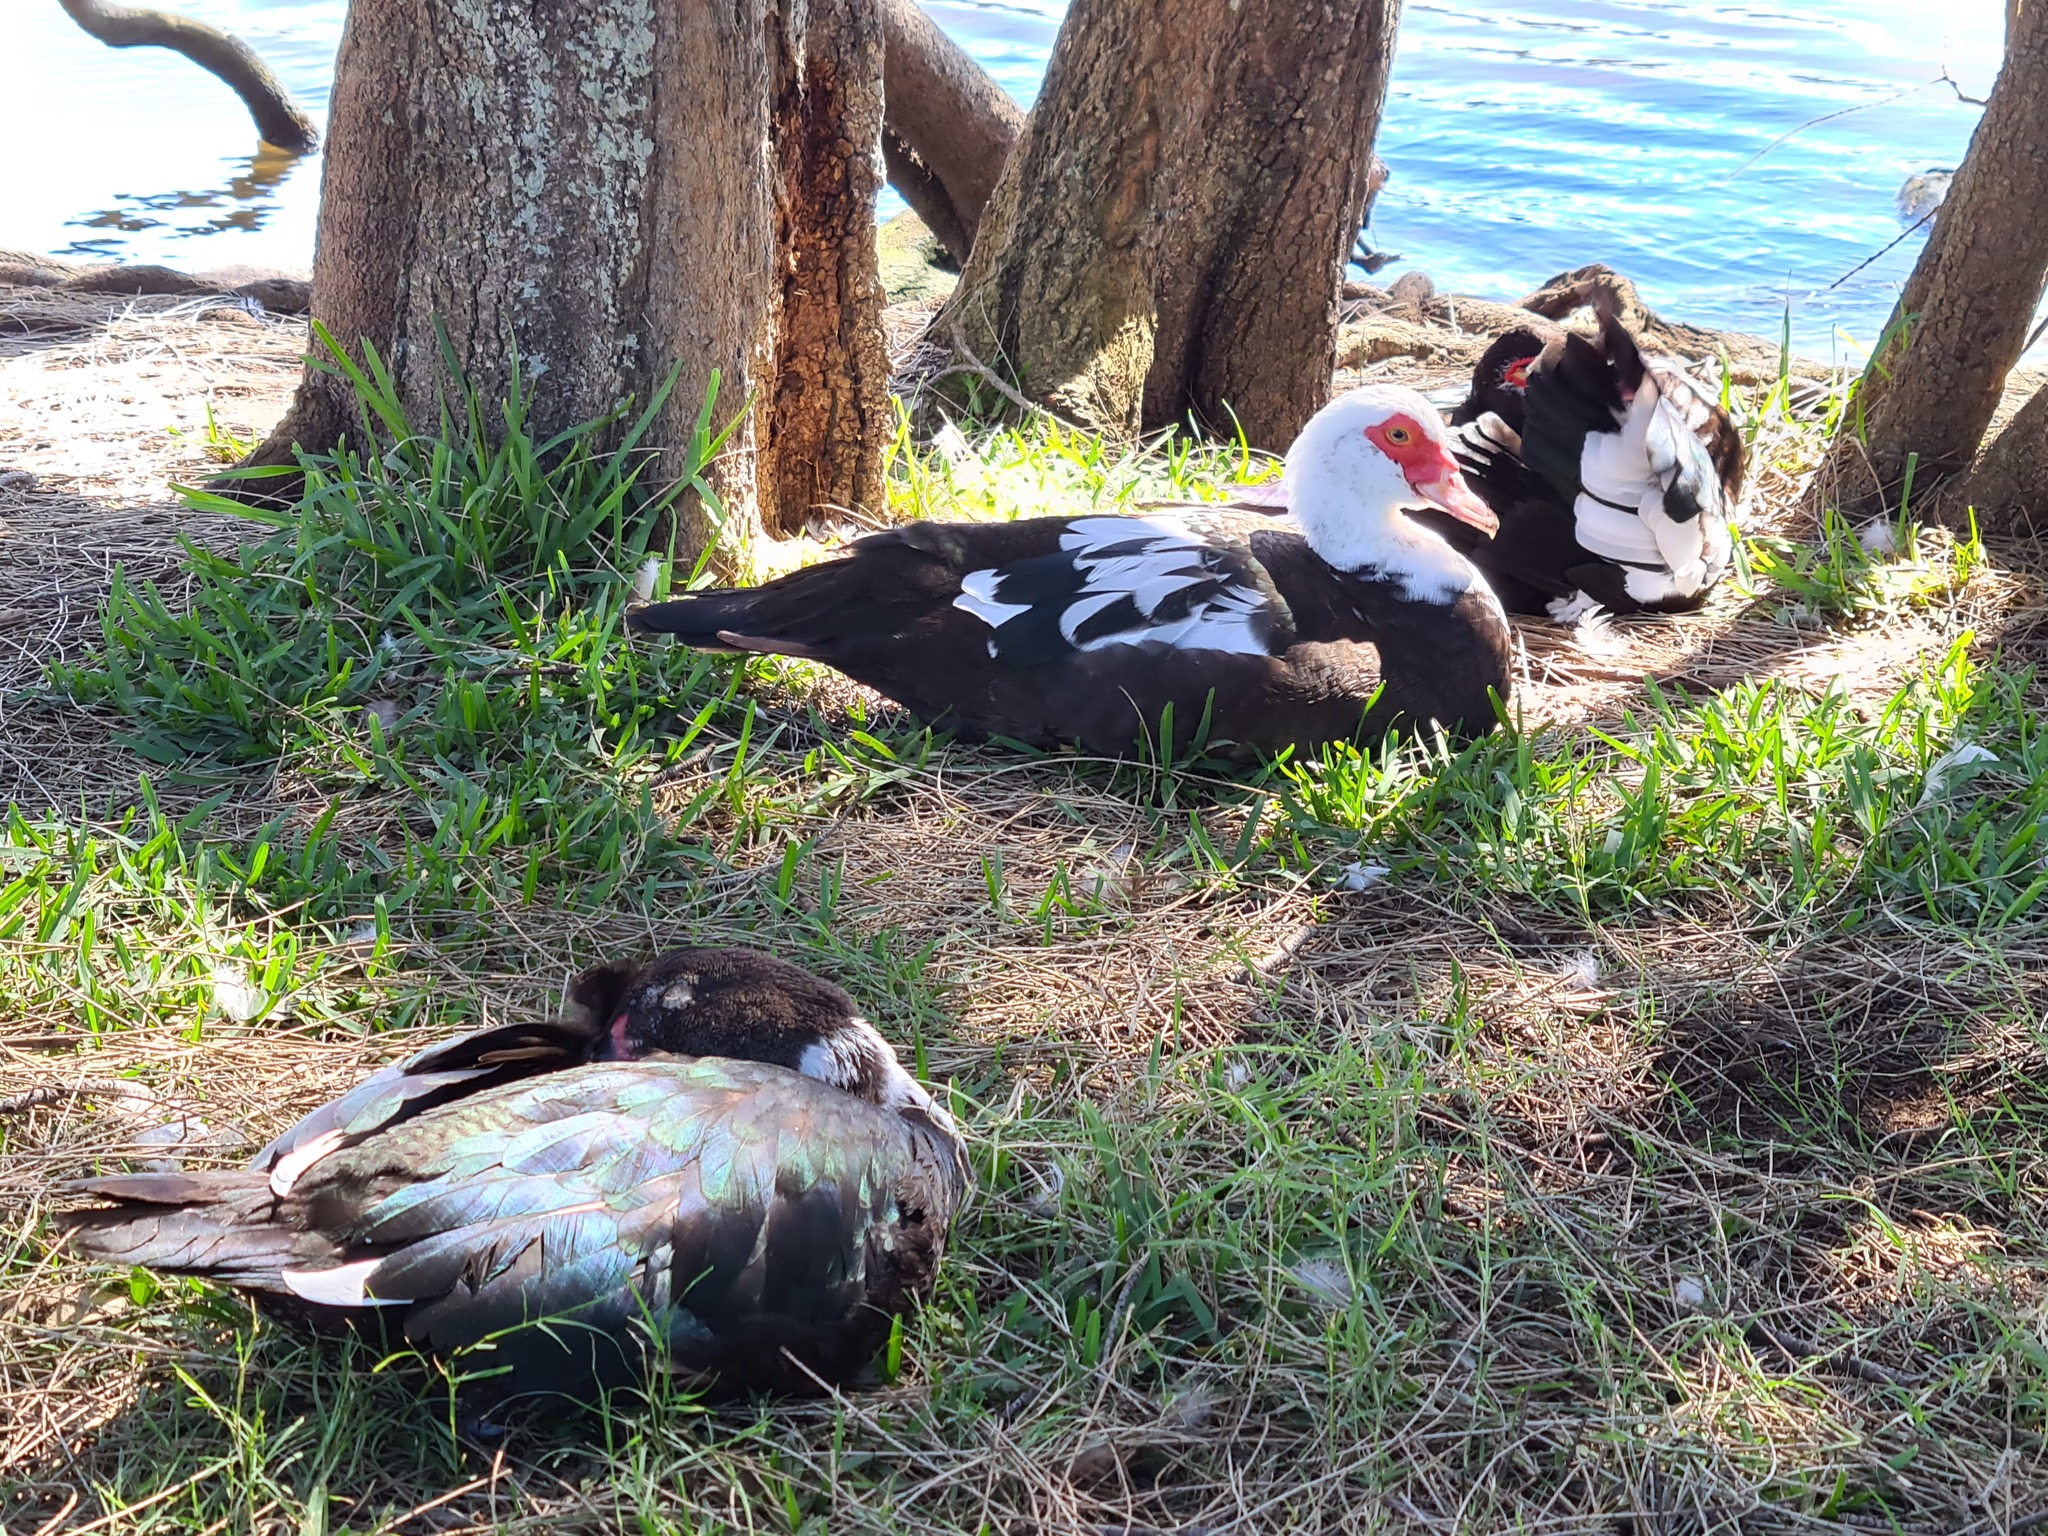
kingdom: Animalia
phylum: Chordata
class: Aves
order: Anseriformes
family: Anatidae
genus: Cairina
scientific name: Cairina moschata
